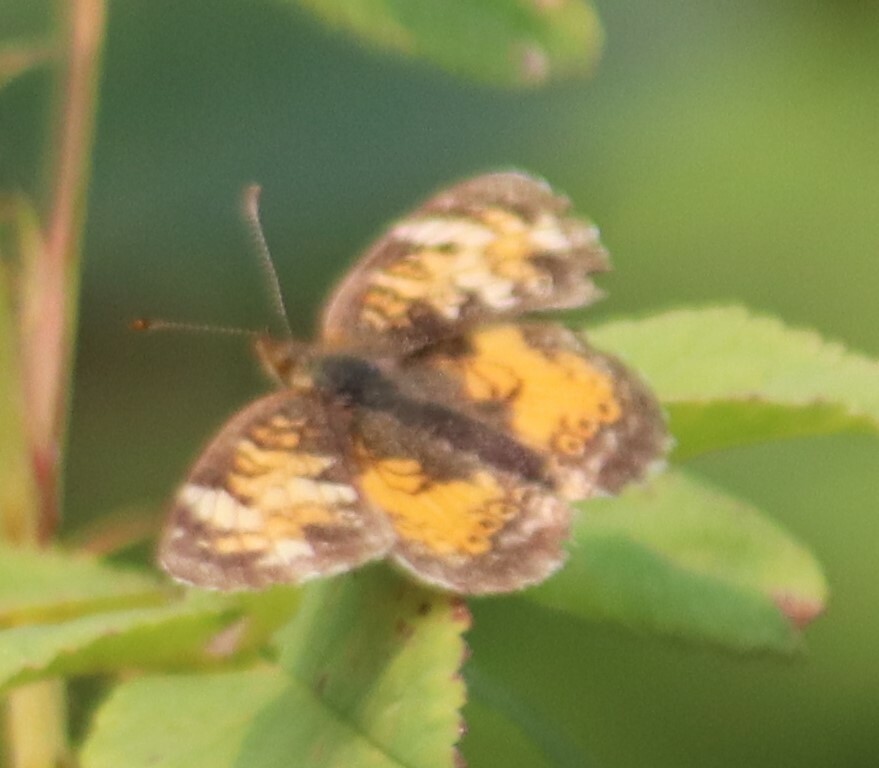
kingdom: Animalia
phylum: Arthropoda
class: Insecta
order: Lepidoptera
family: Nymphalidae
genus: Phyciodes
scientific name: Phyciodes tharos
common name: Pearl crescent
